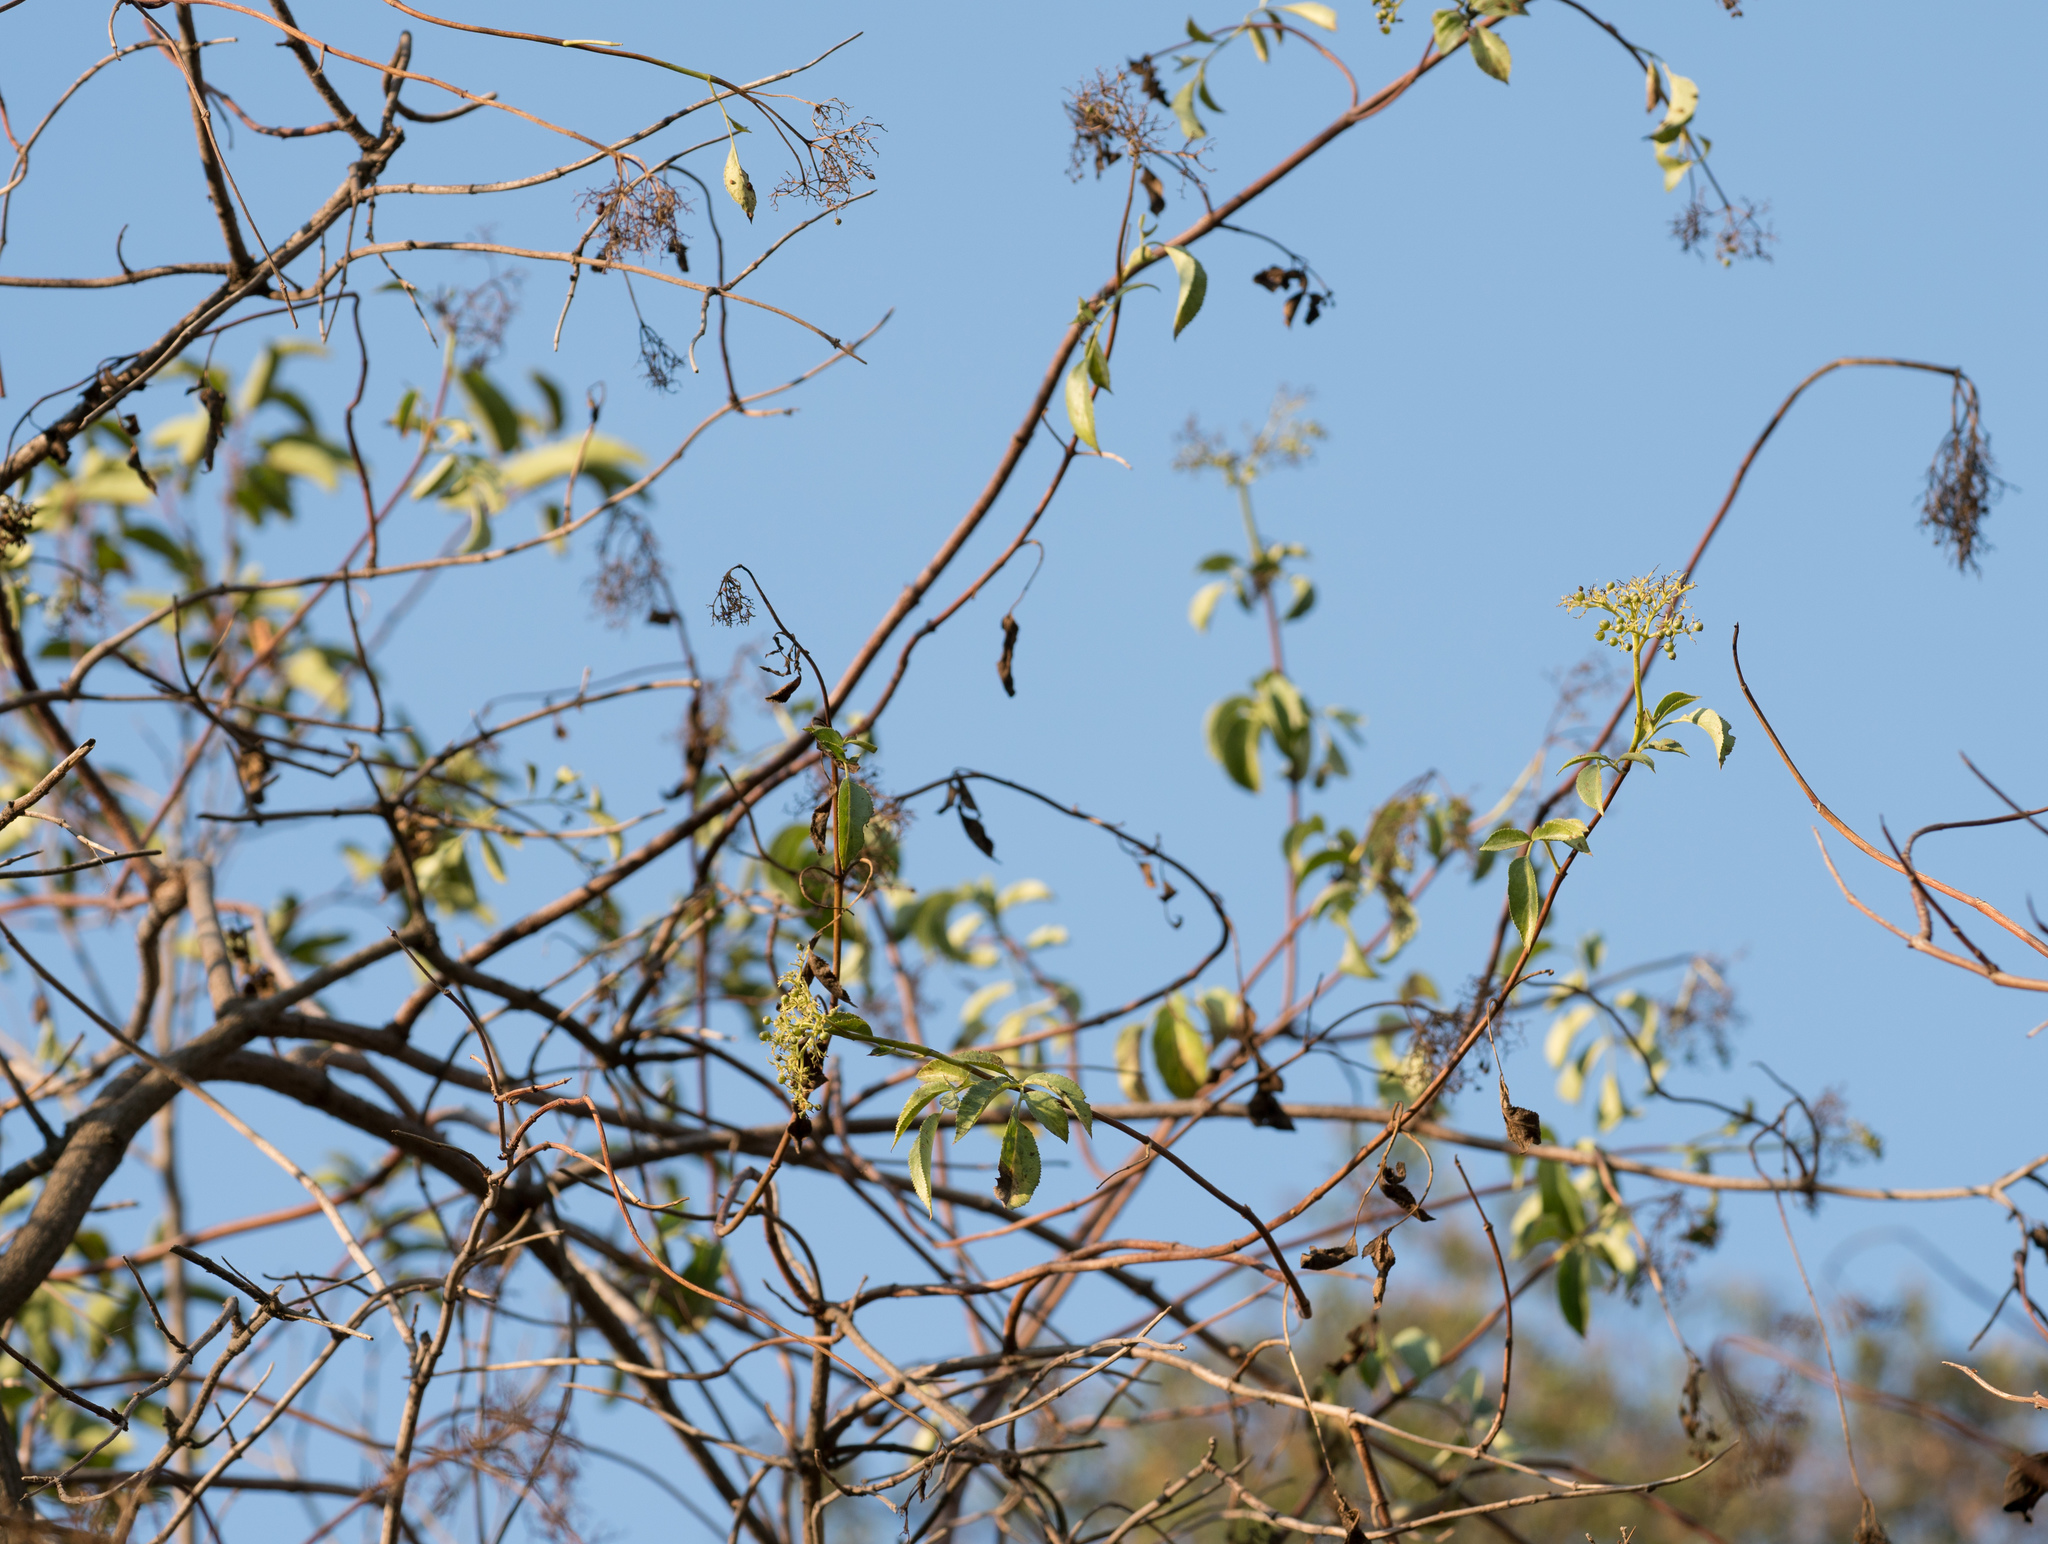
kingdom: Plantae
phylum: Tracheophyta
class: Magnoliopsida
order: Dipsacales
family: Viburnaceae
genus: Sambucus
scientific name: Sambucus cerulea
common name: Blue elder
